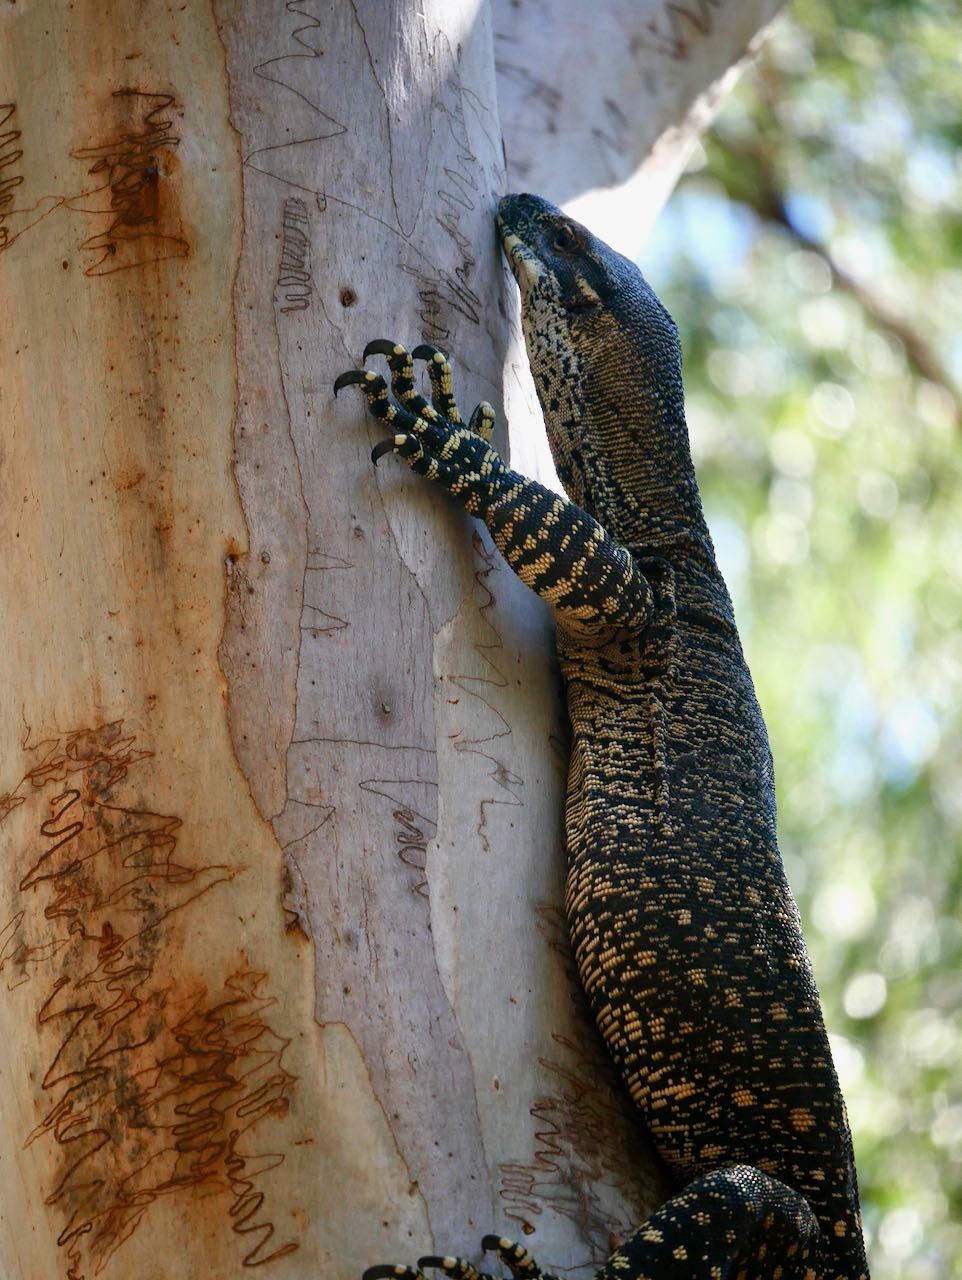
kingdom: Animalia
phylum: Chordata
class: Squamata
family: Varanidae
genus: Varanus
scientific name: Varanus varius
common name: Lace monitor
